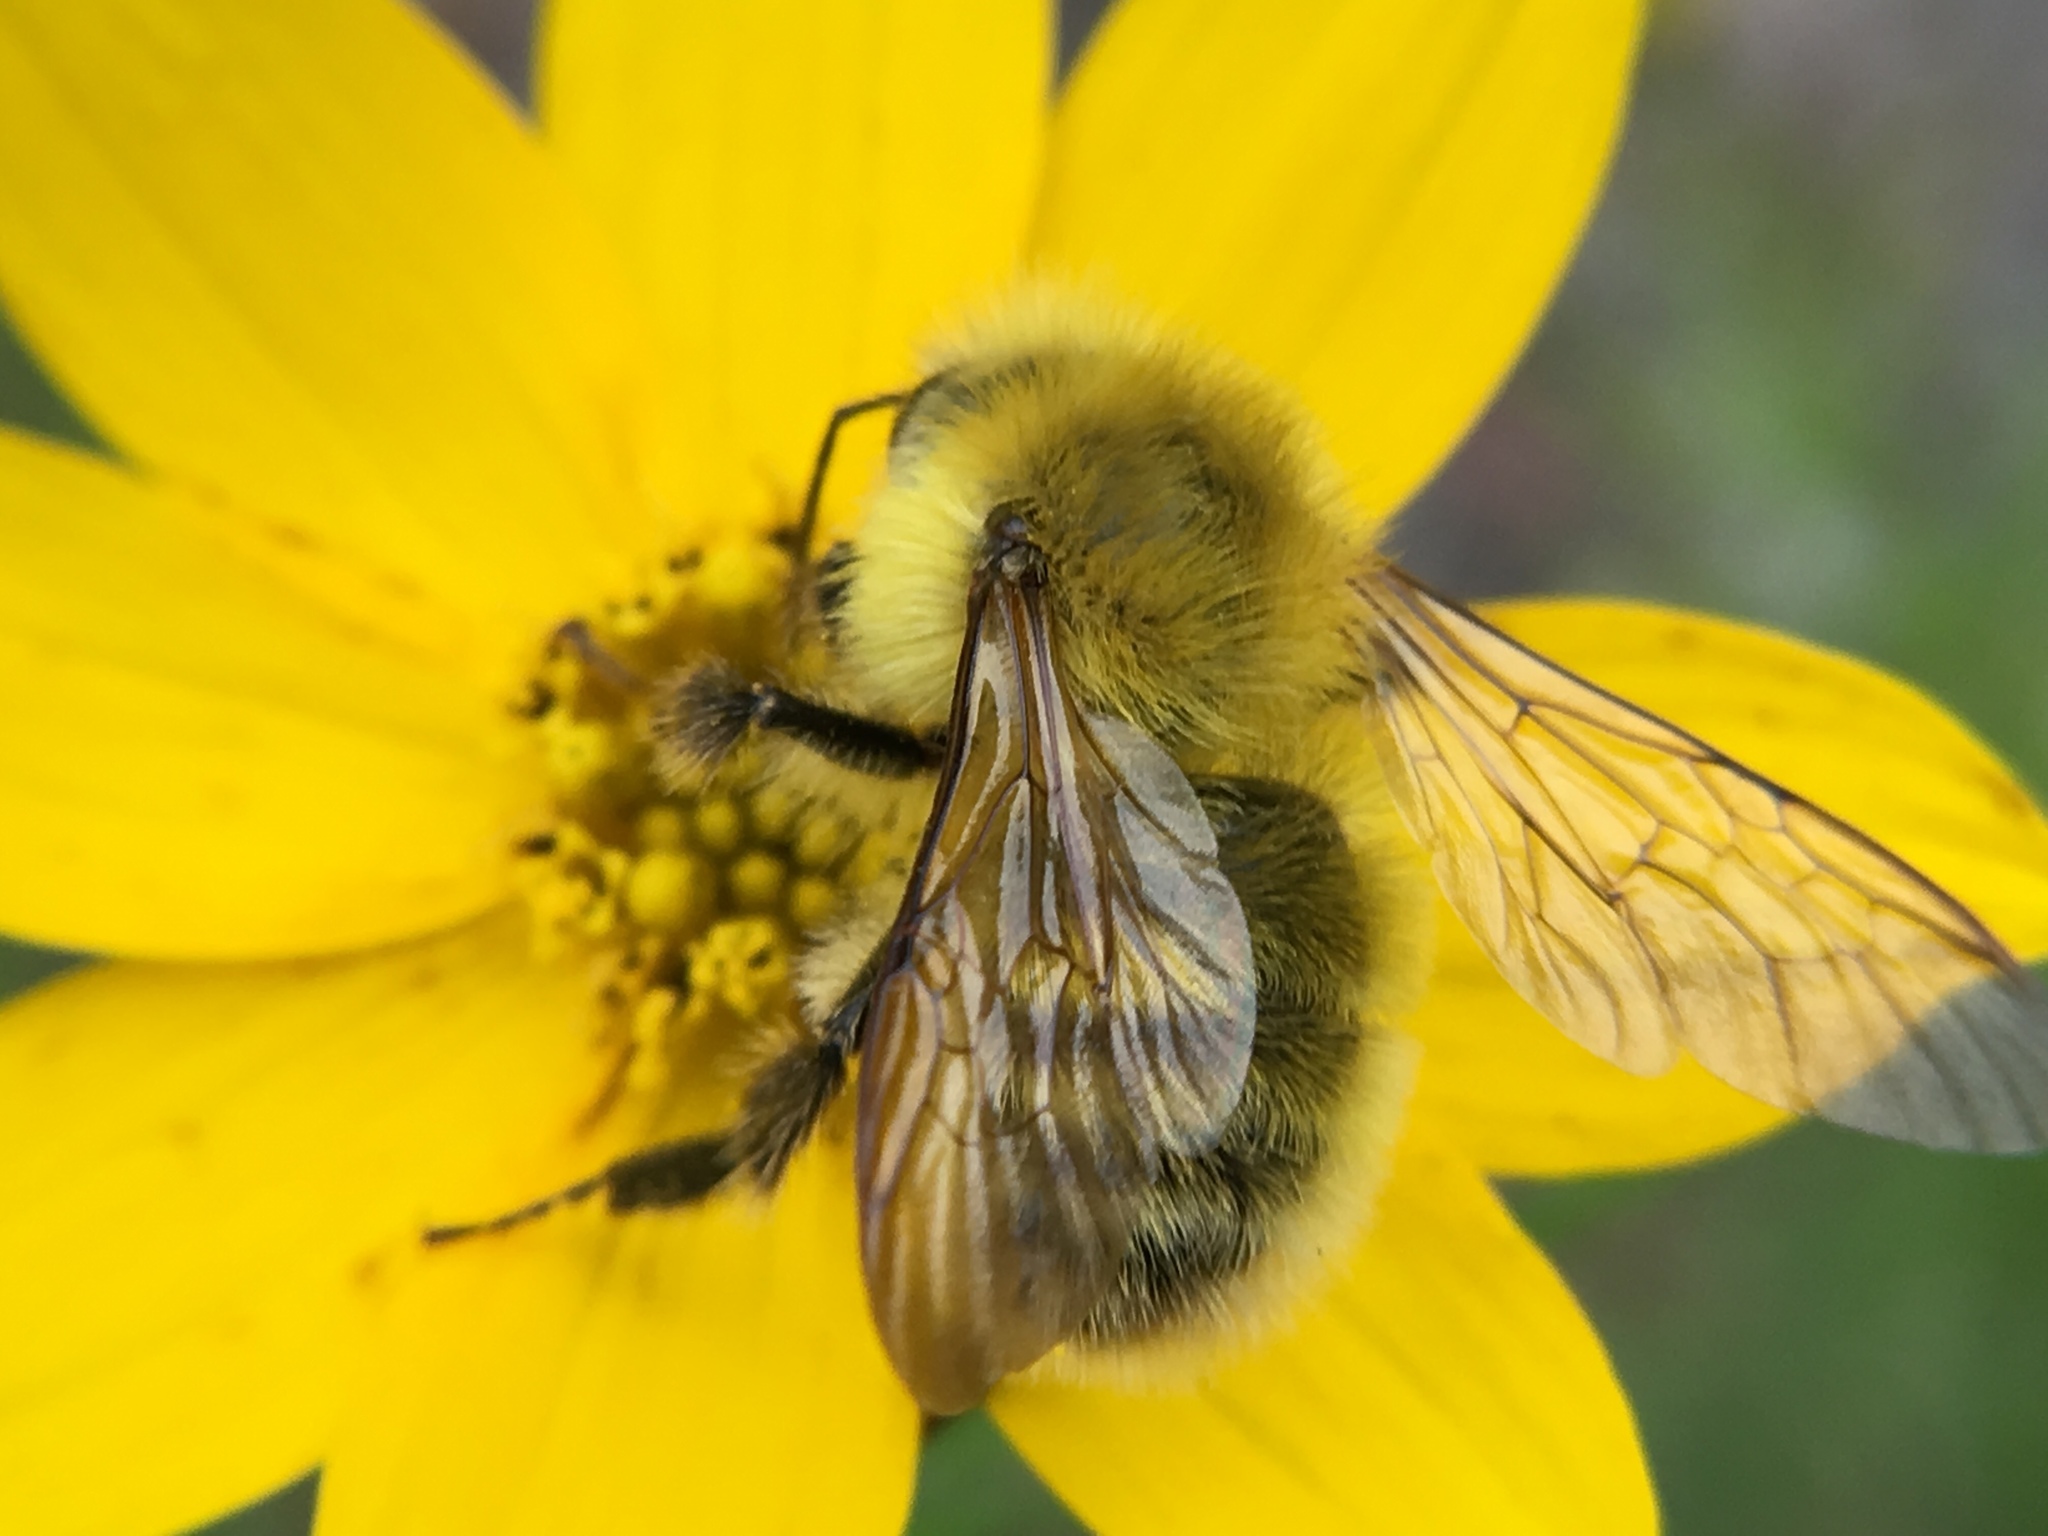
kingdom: Animalia
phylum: Arthropoda
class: Insecta
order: Hymenoptera
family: Apidae
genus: Apis
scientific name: Apis mellifera
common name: Honey bee
